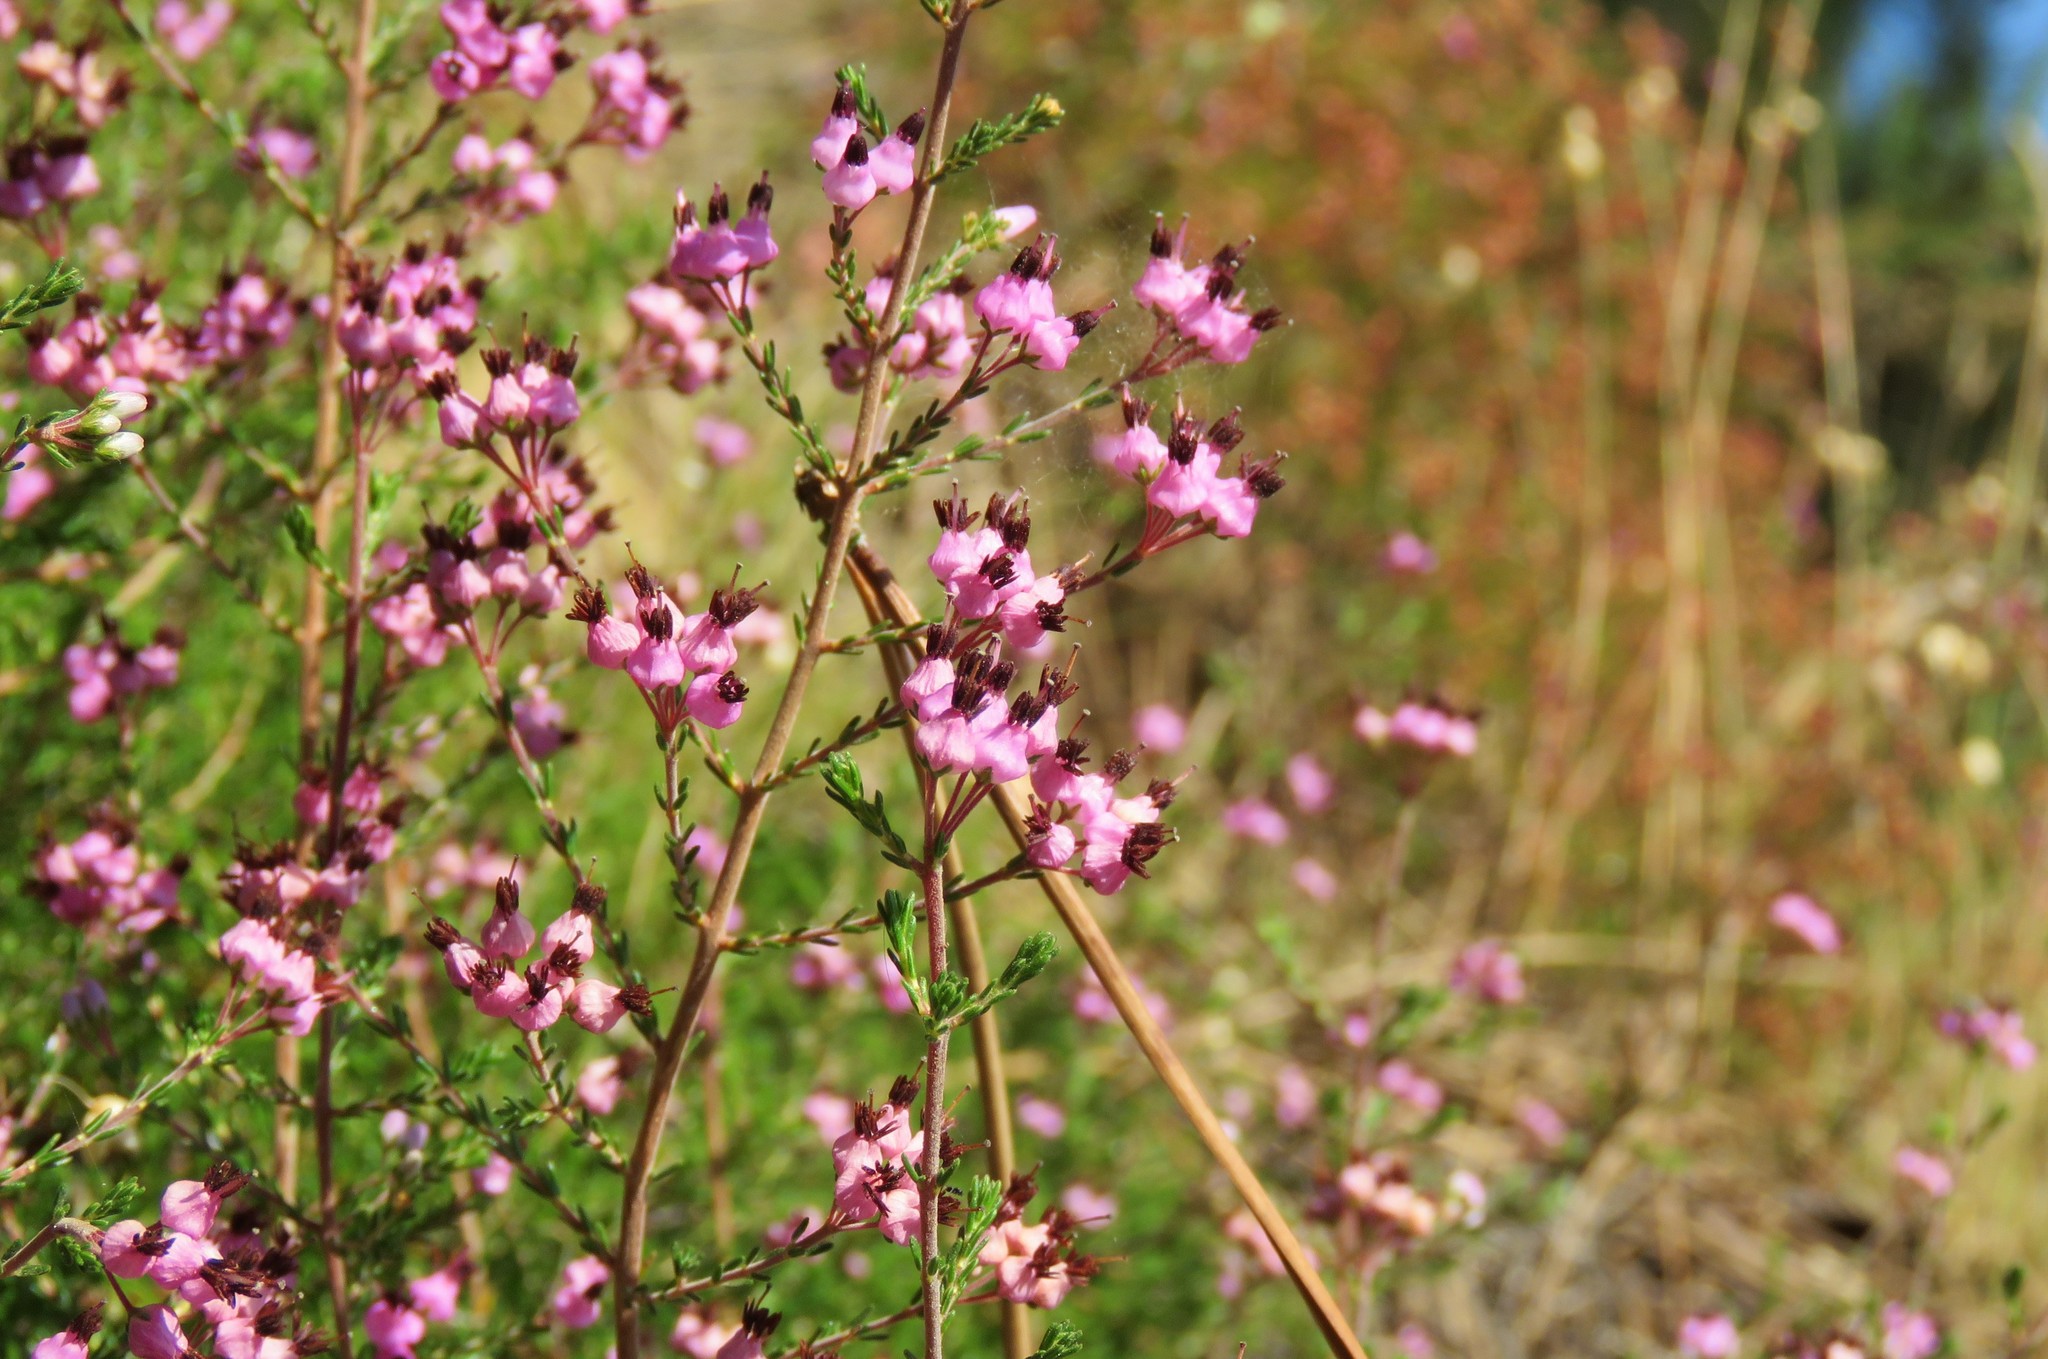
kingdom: Plantae
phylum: Tracheophyta
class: Magnoliopsida
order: Ericales
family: Ericaceae
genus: Erica
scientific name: Erica umbellata
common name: Dwarf spanish heath
